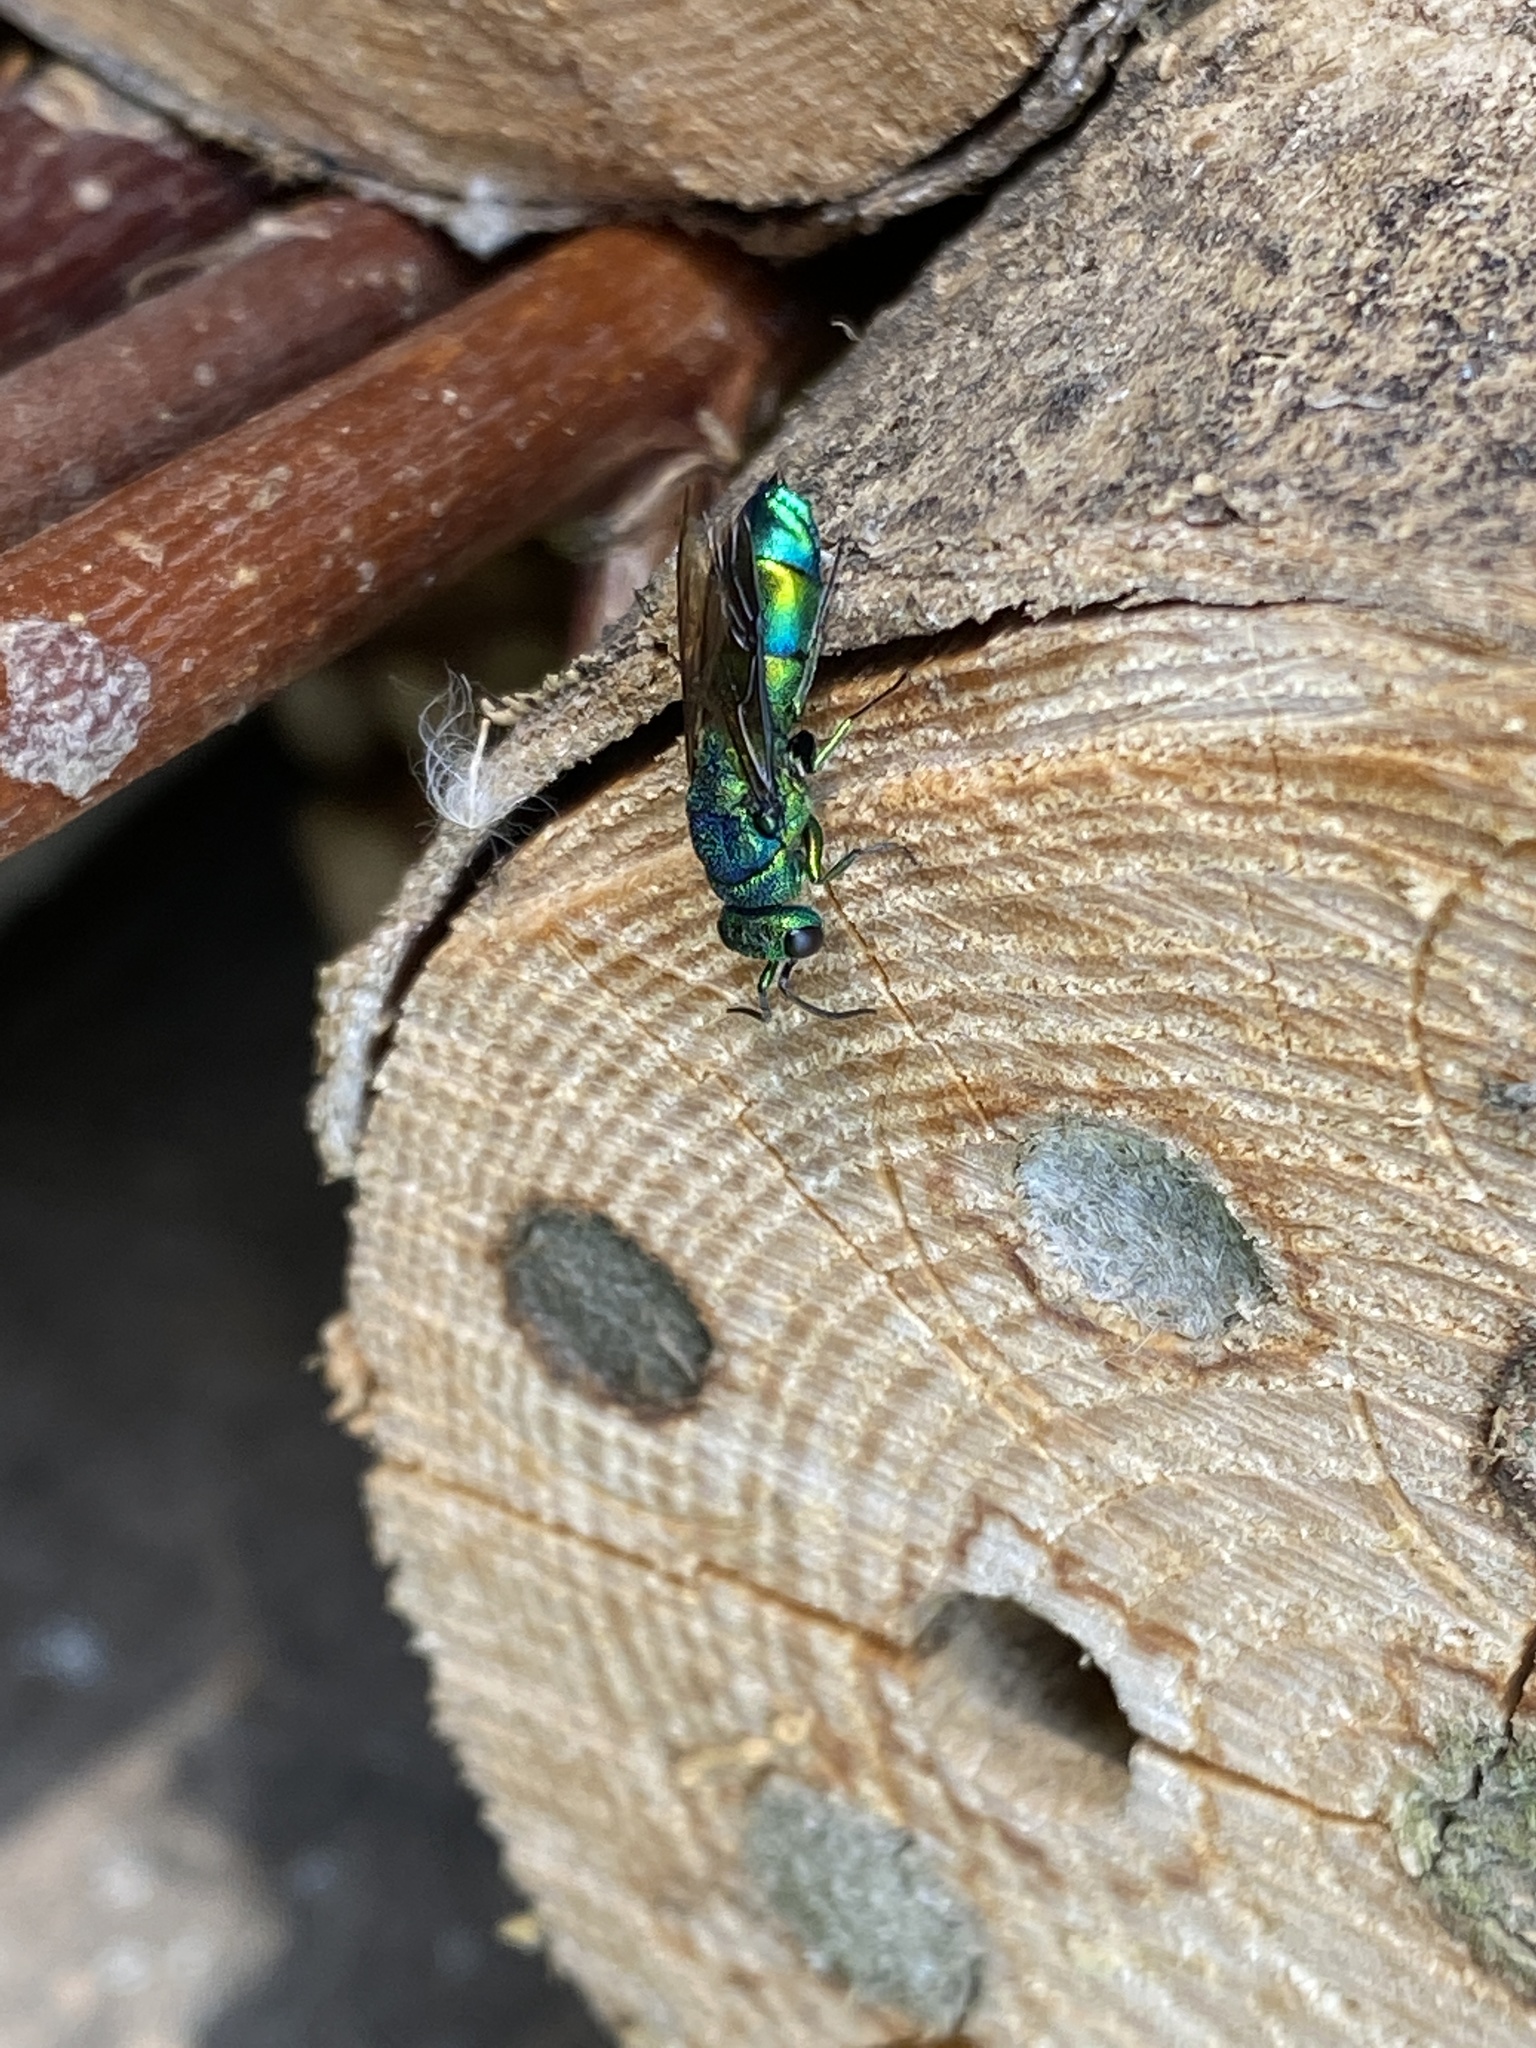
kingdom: Animalia
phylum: Arthropoda
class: Insecta
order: Hymenoptera
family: Chrysididae
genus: Chrysis
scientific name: Chrysis iris
